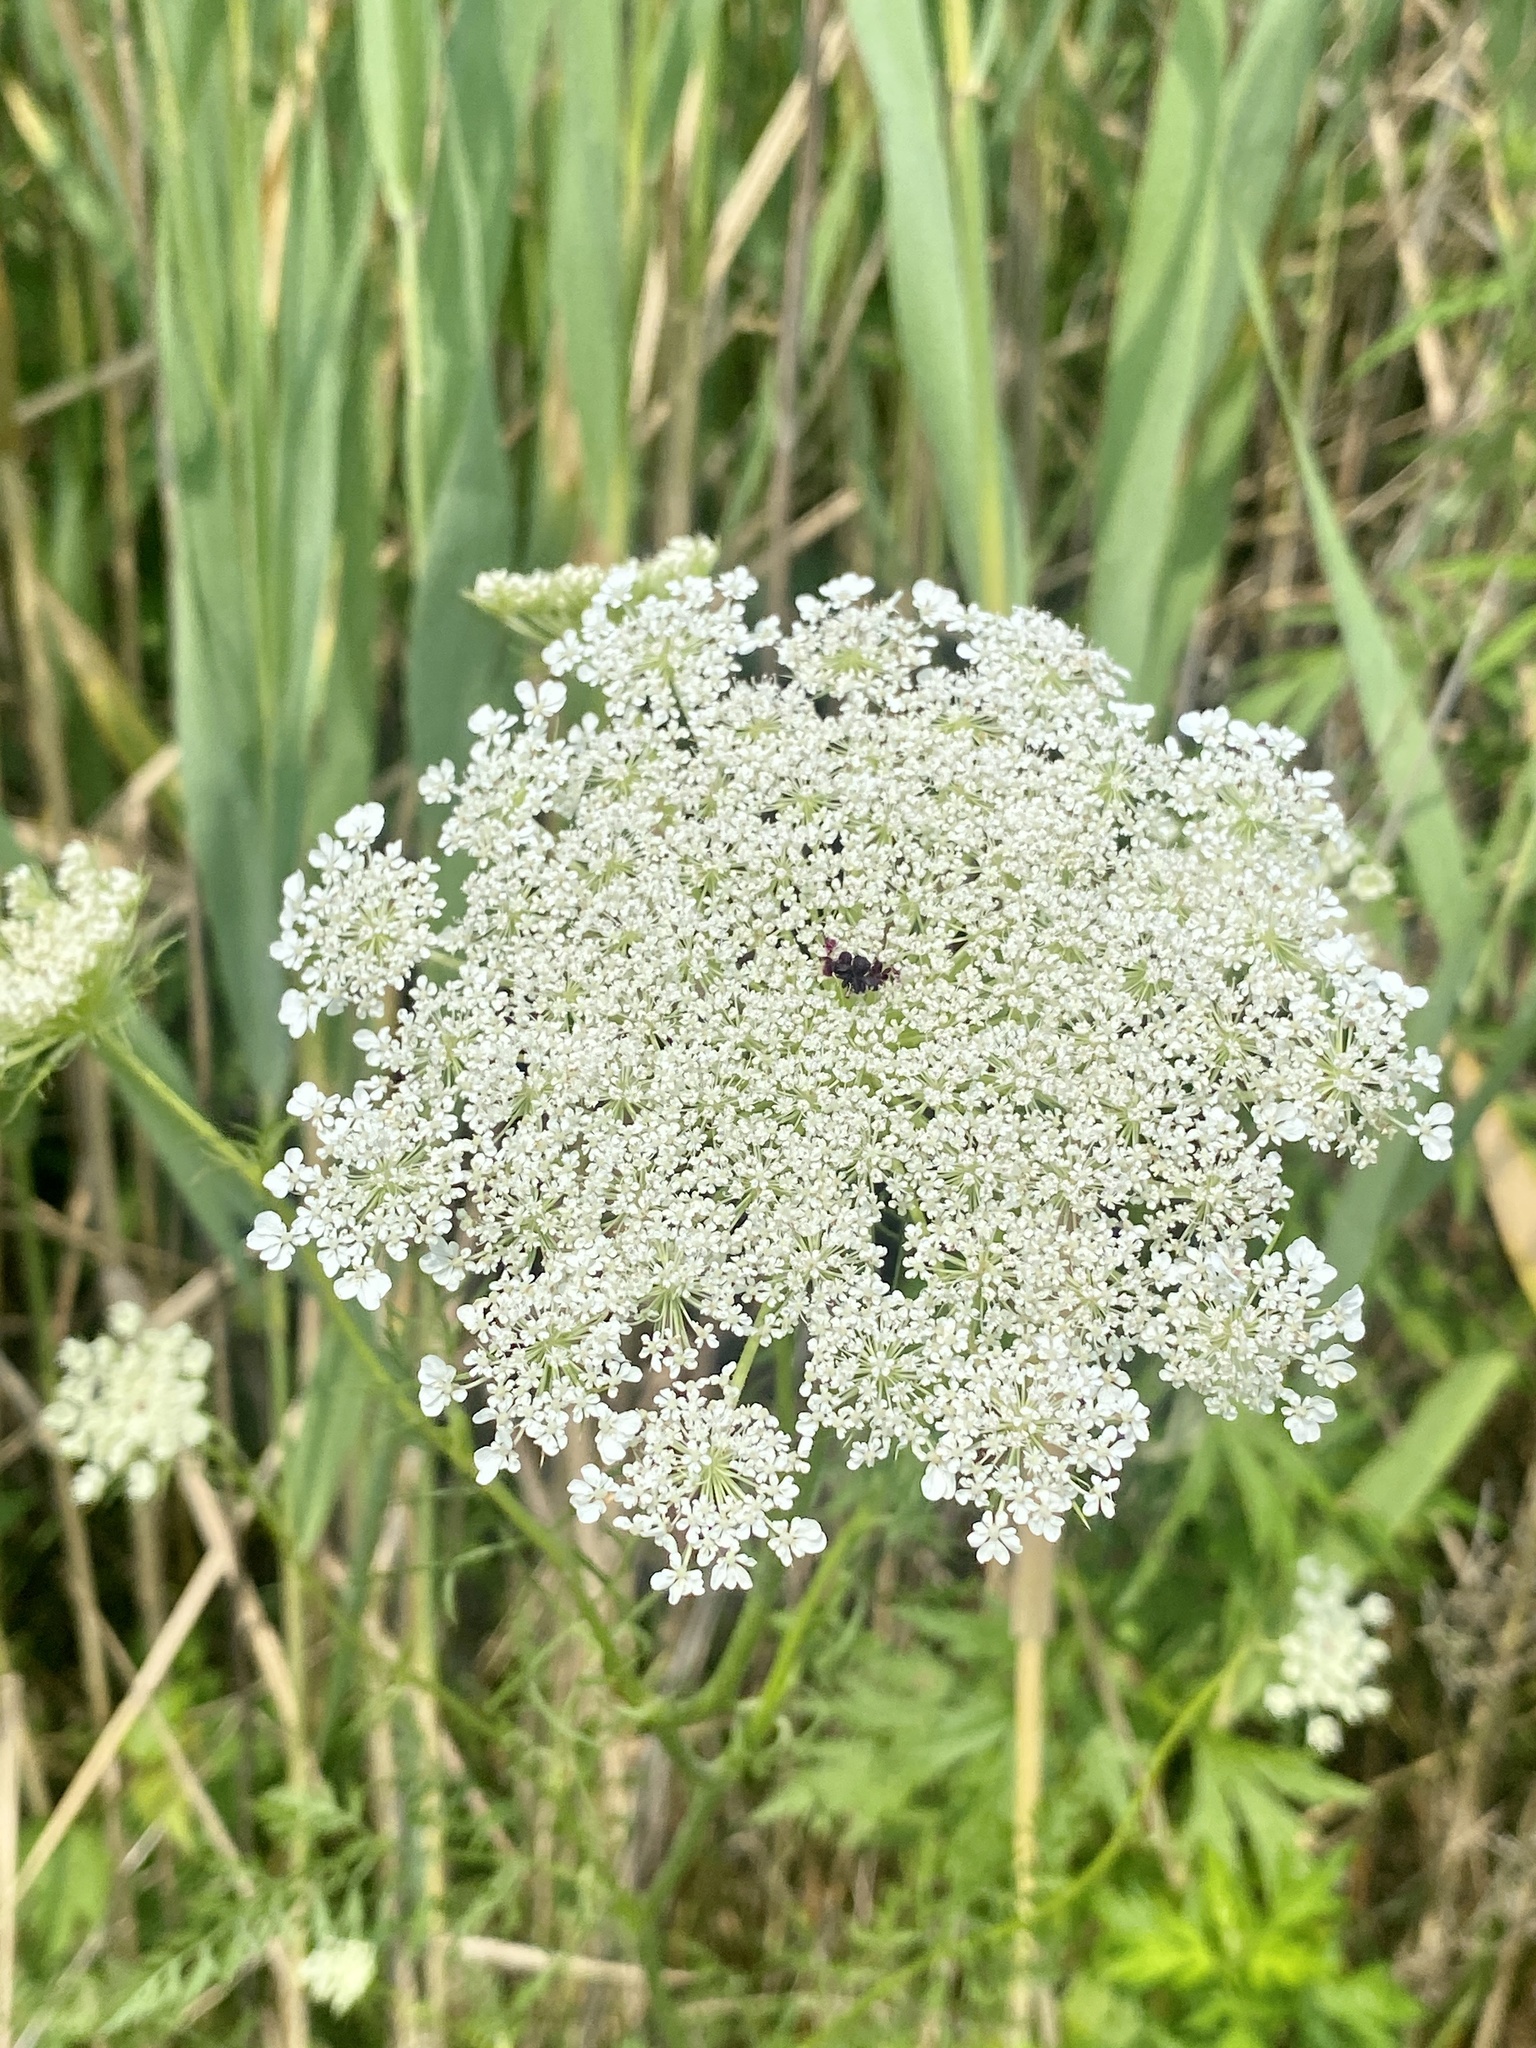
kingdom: Plantae
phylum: Tracheophyta
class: Magnoliopsida
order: Apiales
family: Apiaceae
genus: Daucus
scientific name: Daucus carota
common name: Wild carrot
